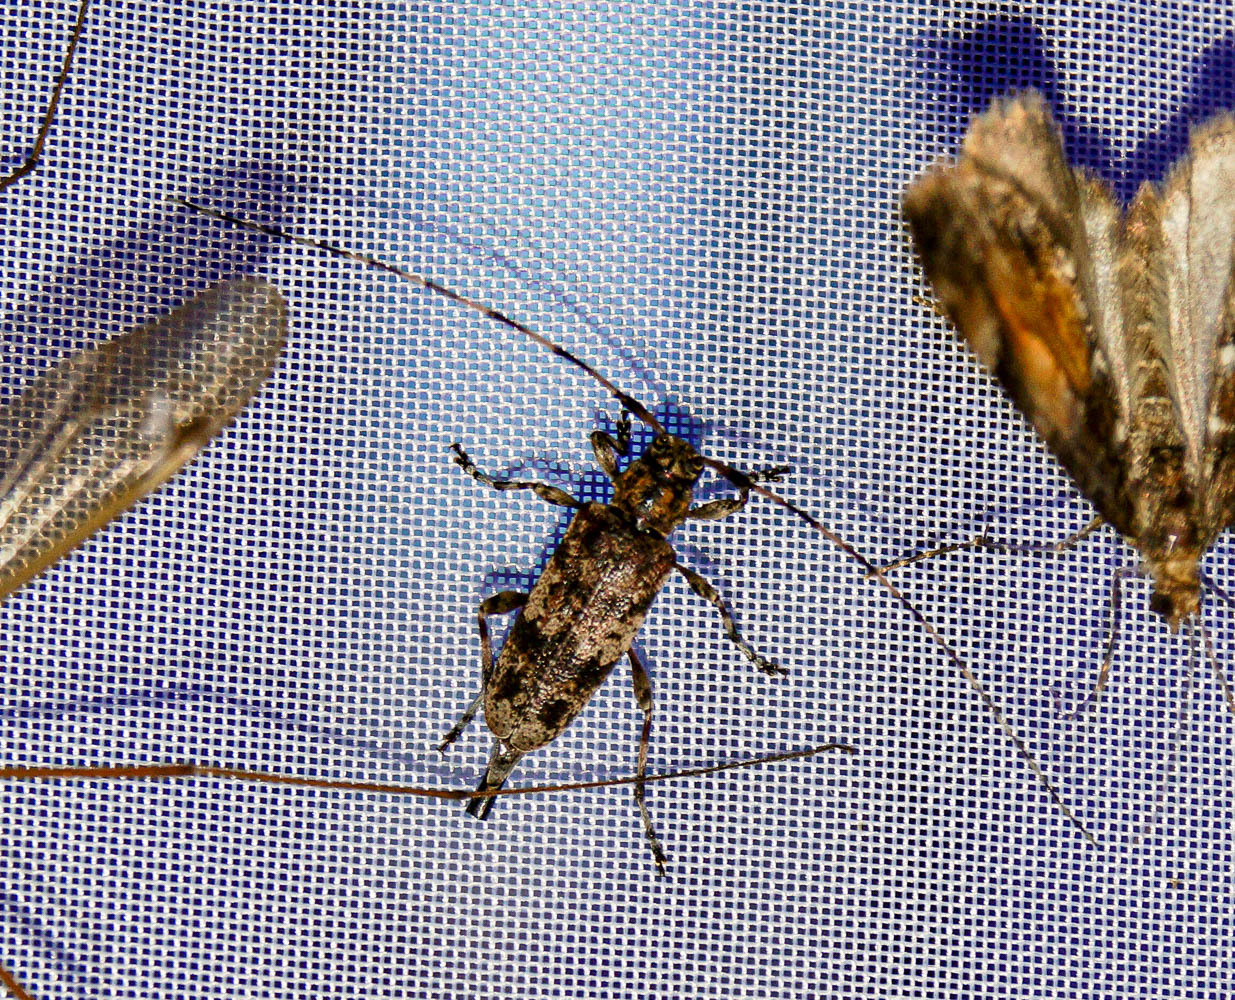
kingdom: Animalia
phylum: Arthropoda
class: Insecta
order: Coleoptera
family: Cerambycidae
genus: Acanthocinus
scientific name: Acanthocinus griseus
